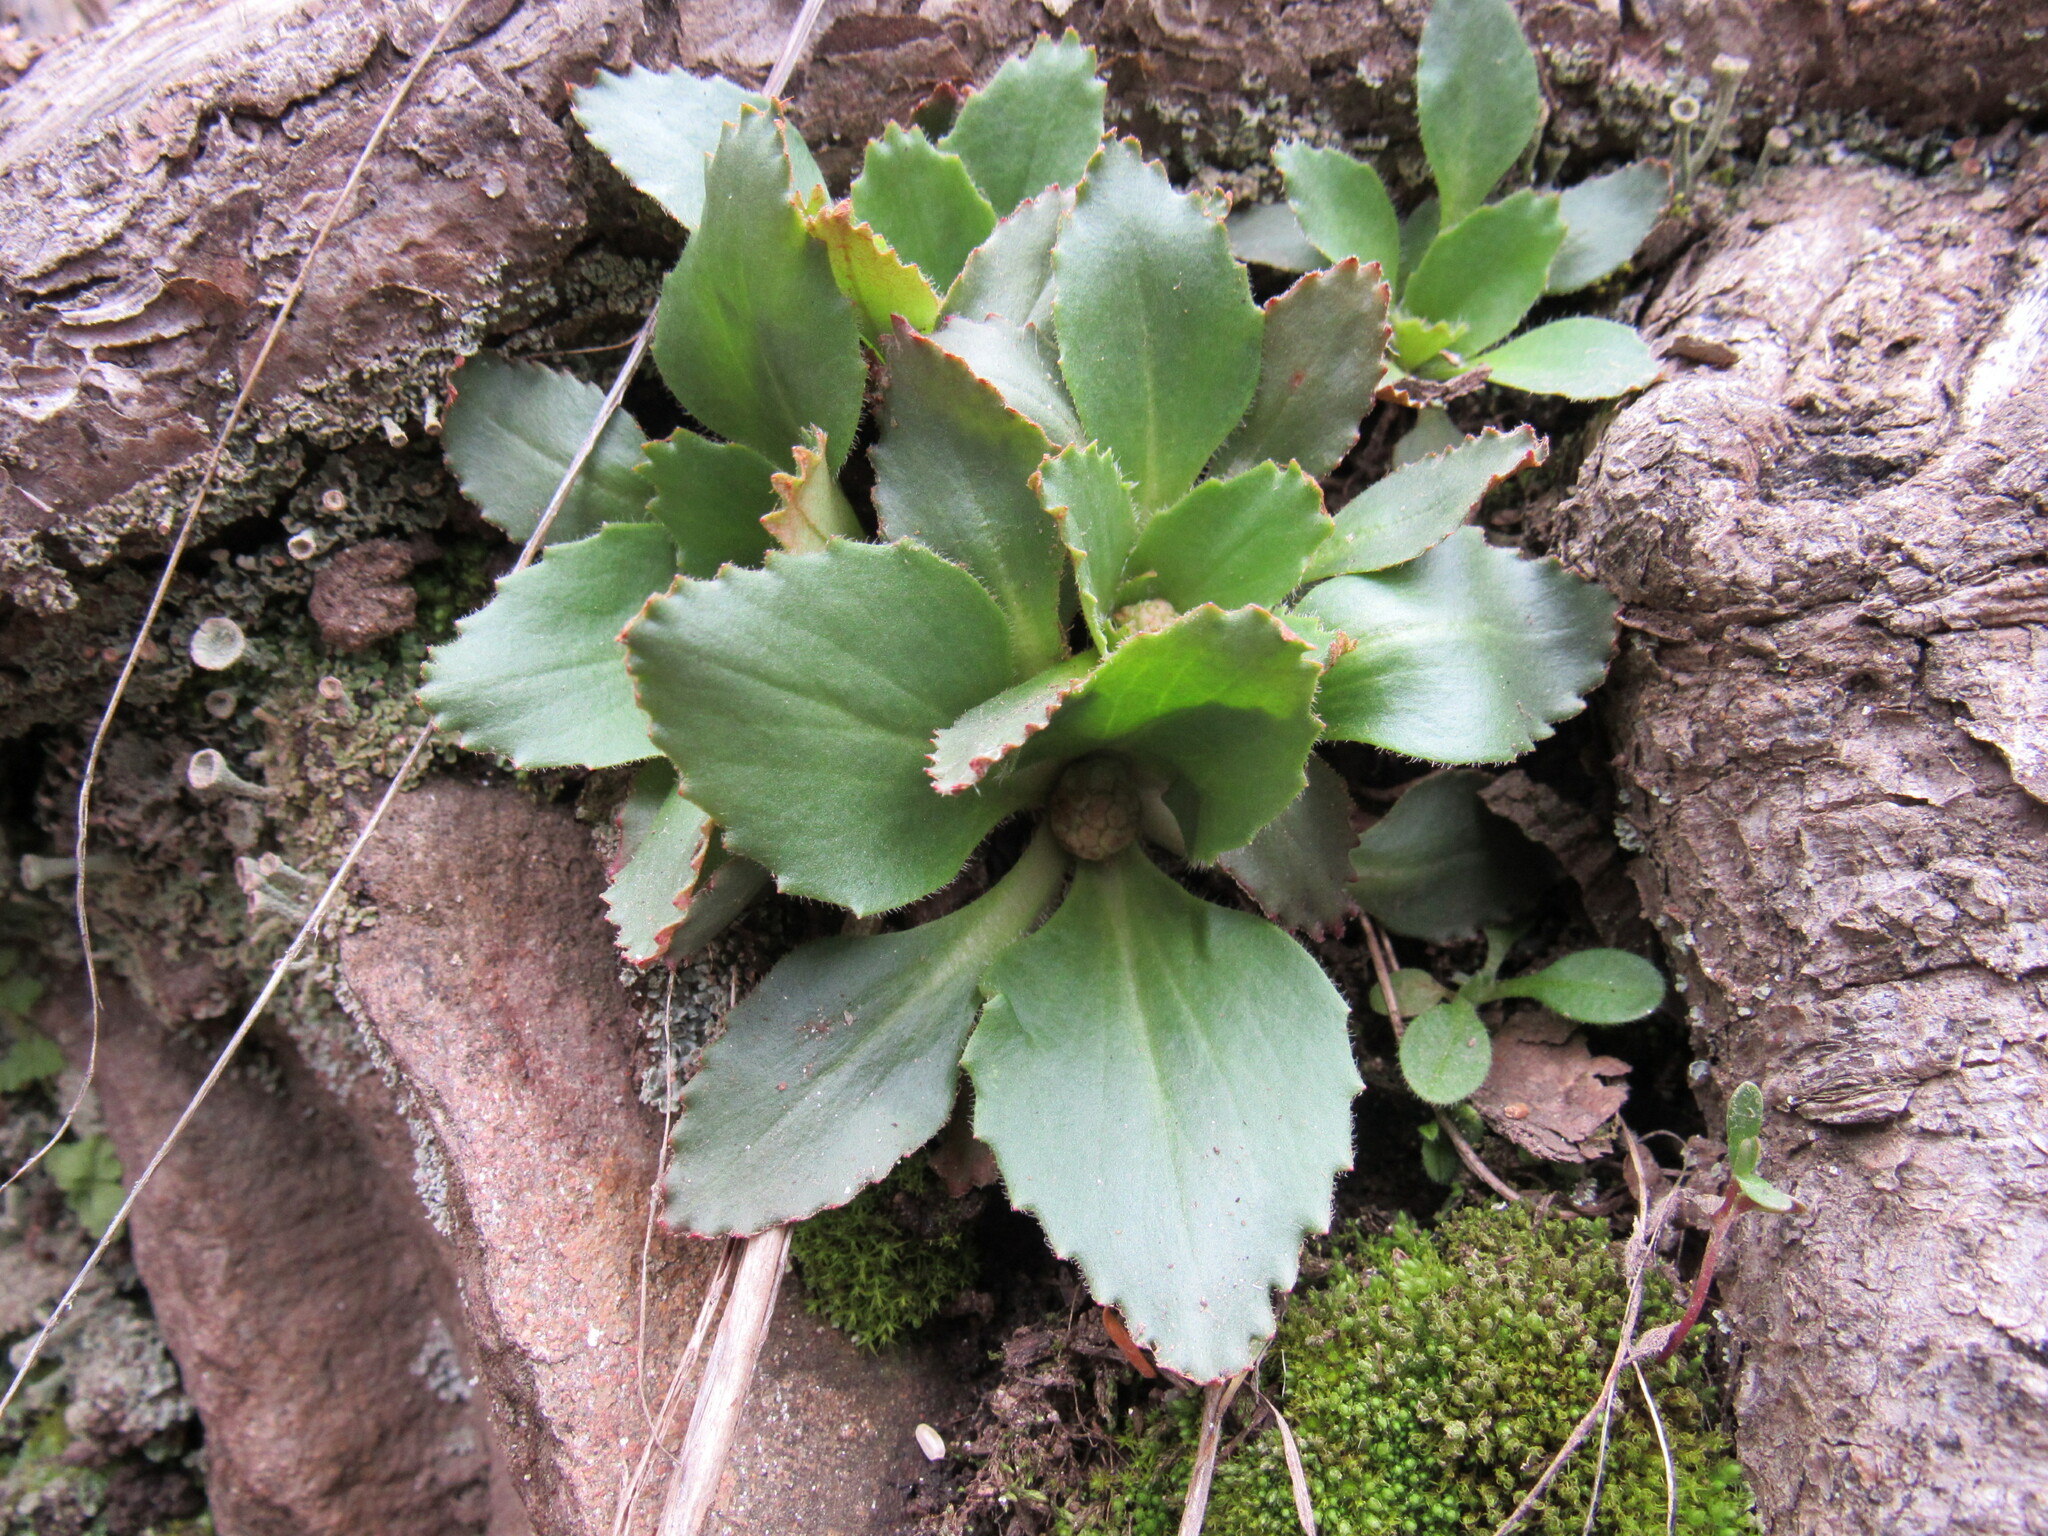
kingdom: Plantae
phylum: Tracheophyta
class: Magnoliopsida
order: Saxifragales
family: Saxifragaceae
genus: Micranthes
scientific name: Micranthes rhomboidea
